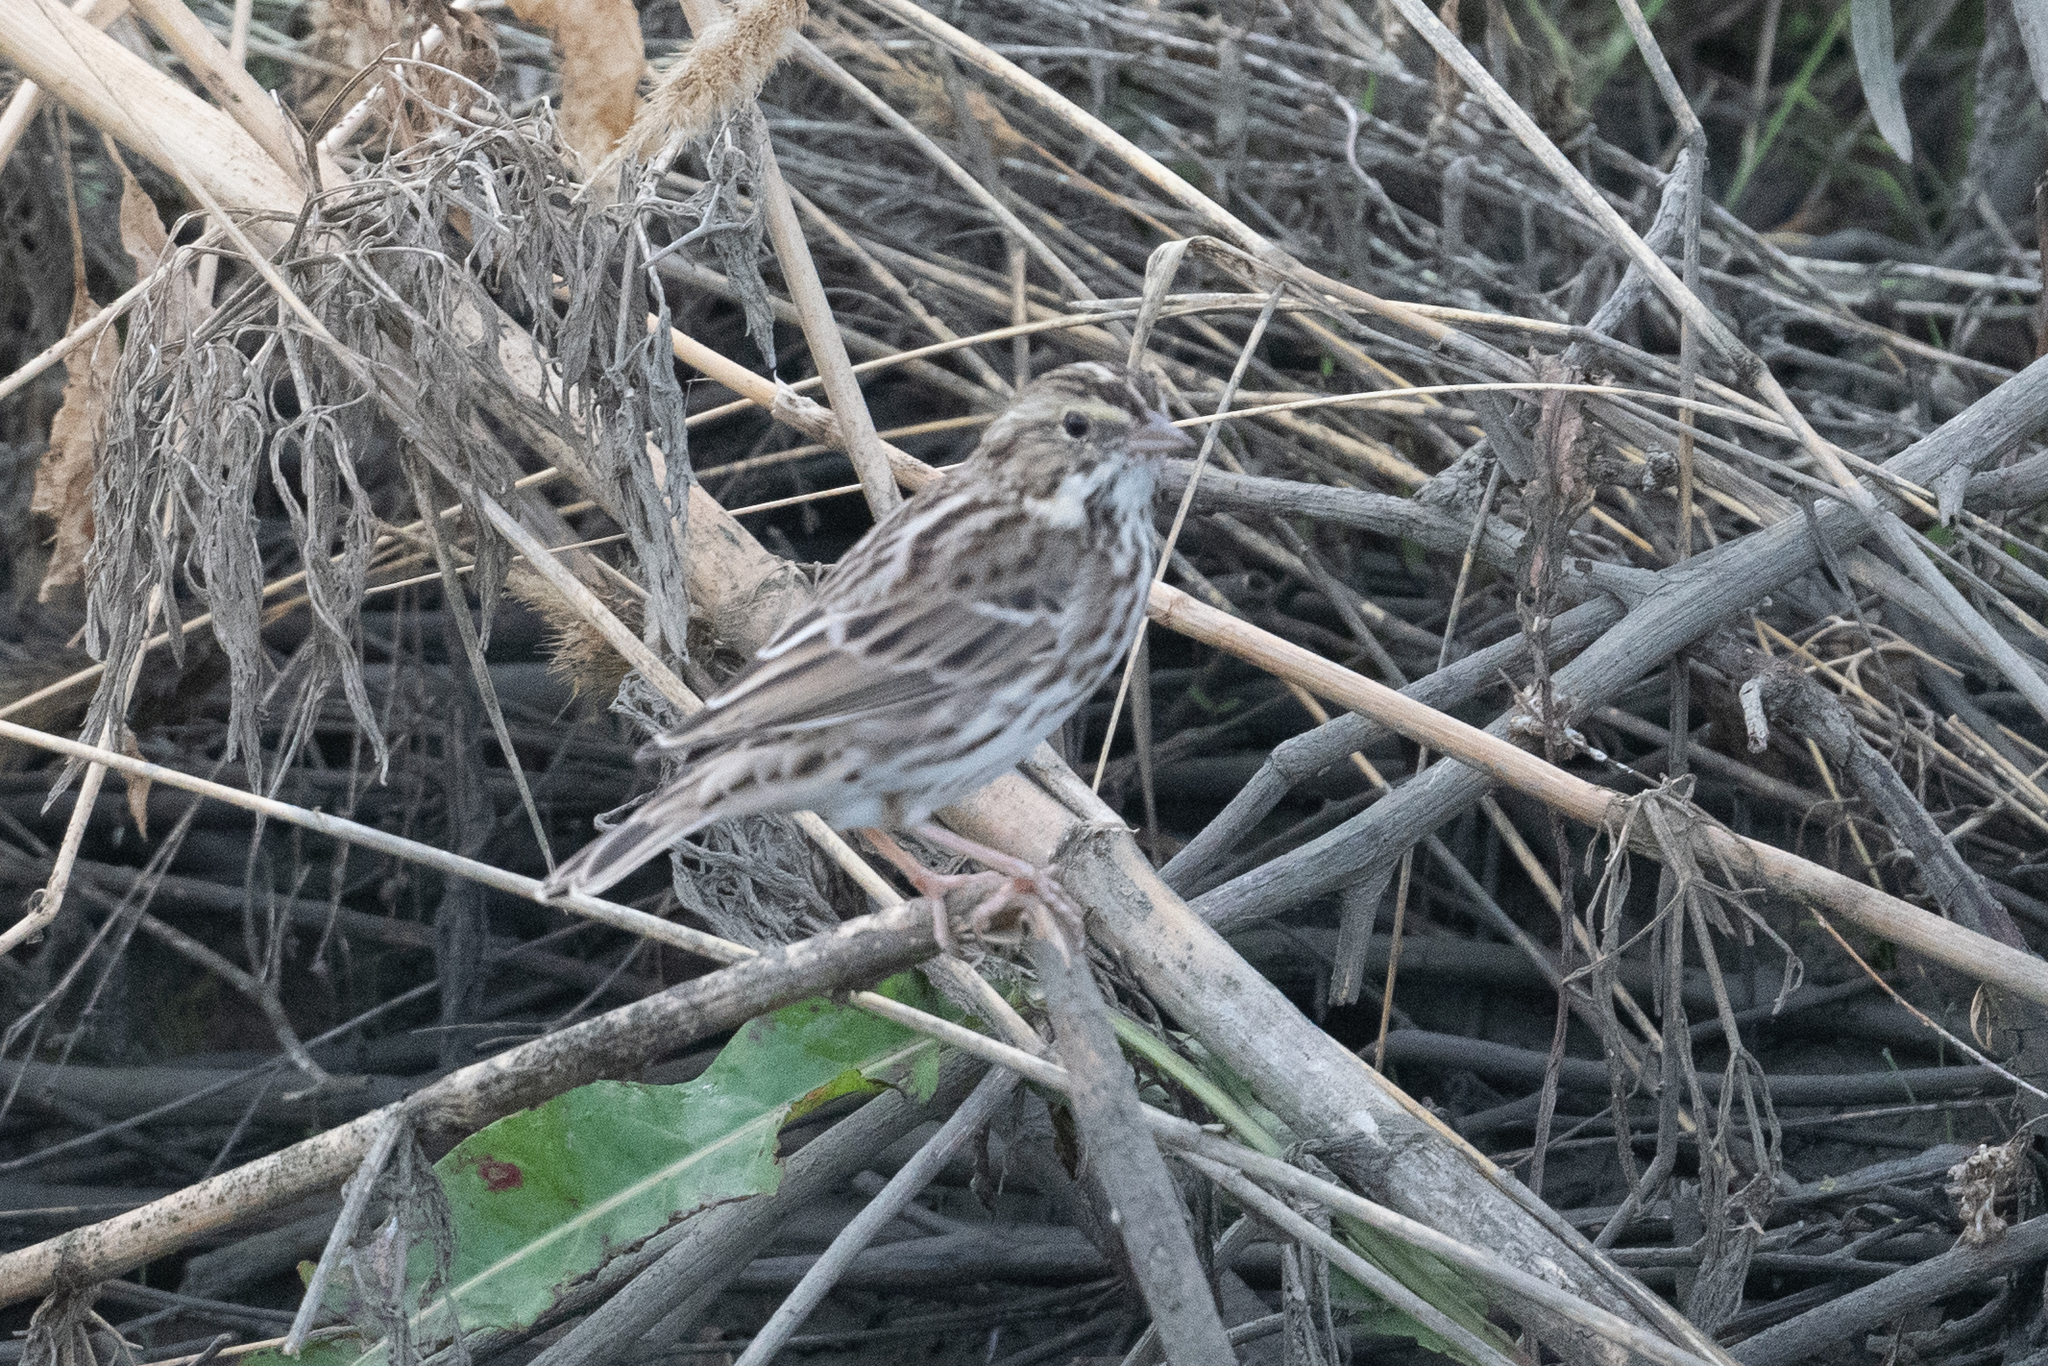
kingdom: Animalia
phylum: Chordata
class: Aves
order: Passeriformes
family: Passerellidae
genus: Passerculus
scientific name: Passerculus sandwichensis
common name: Savannah sparrow
